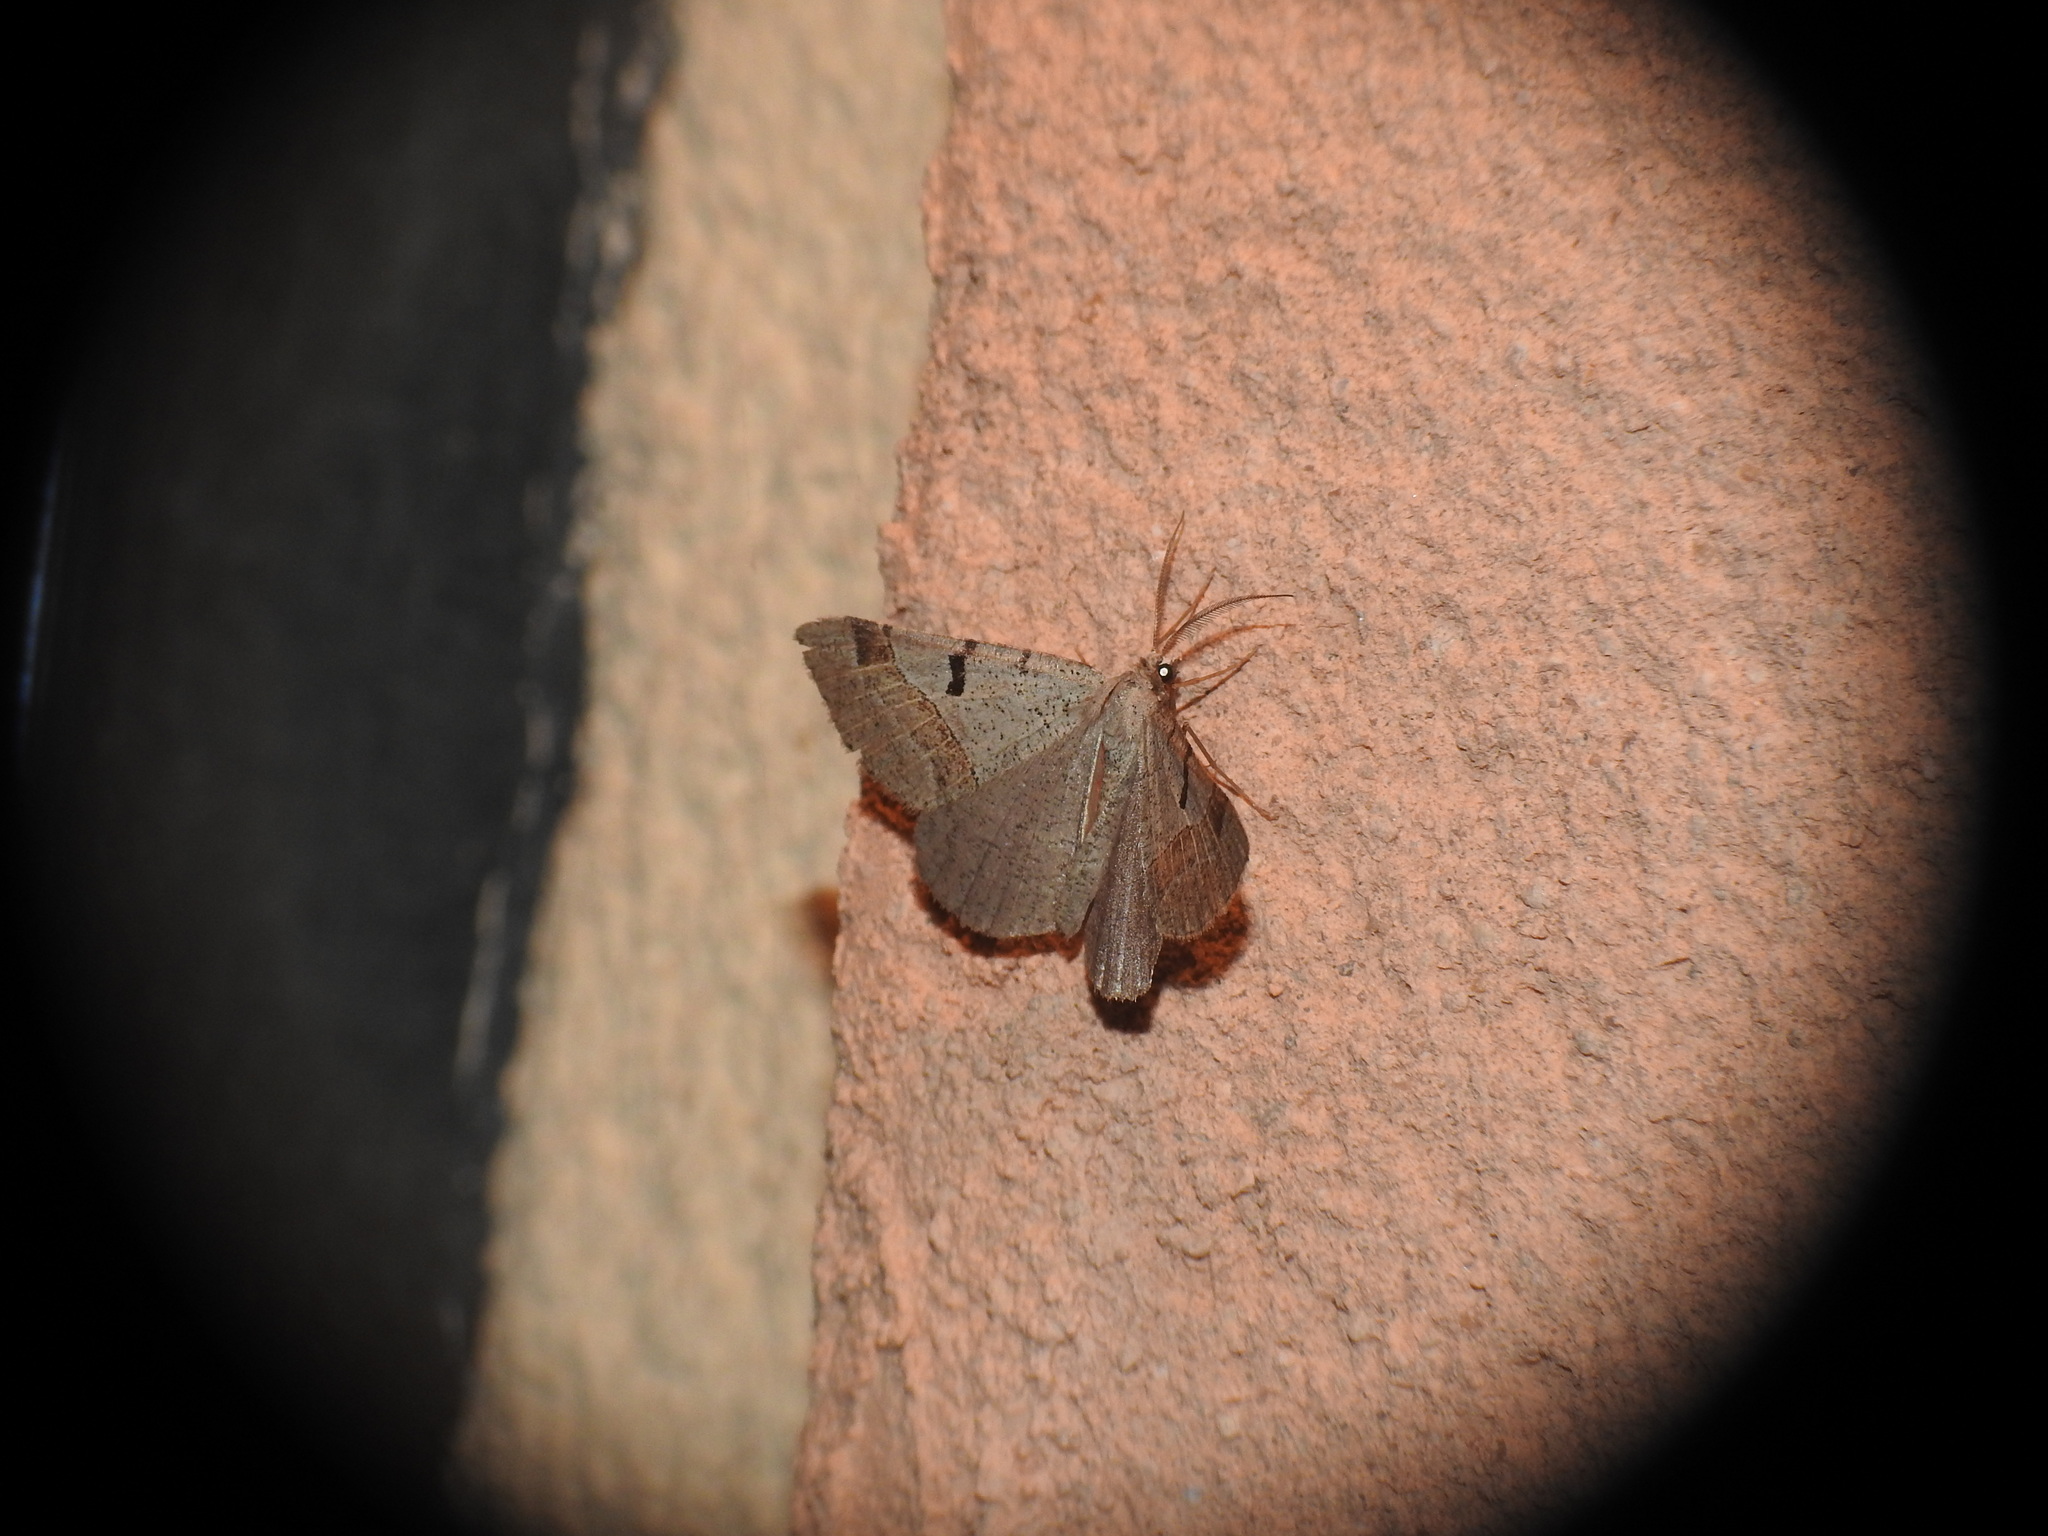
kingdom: Animalia
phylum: Arthropoda
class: Insecta
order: Lepidoptera
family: Geometridae
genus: Itame
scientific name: Itame vincularia
